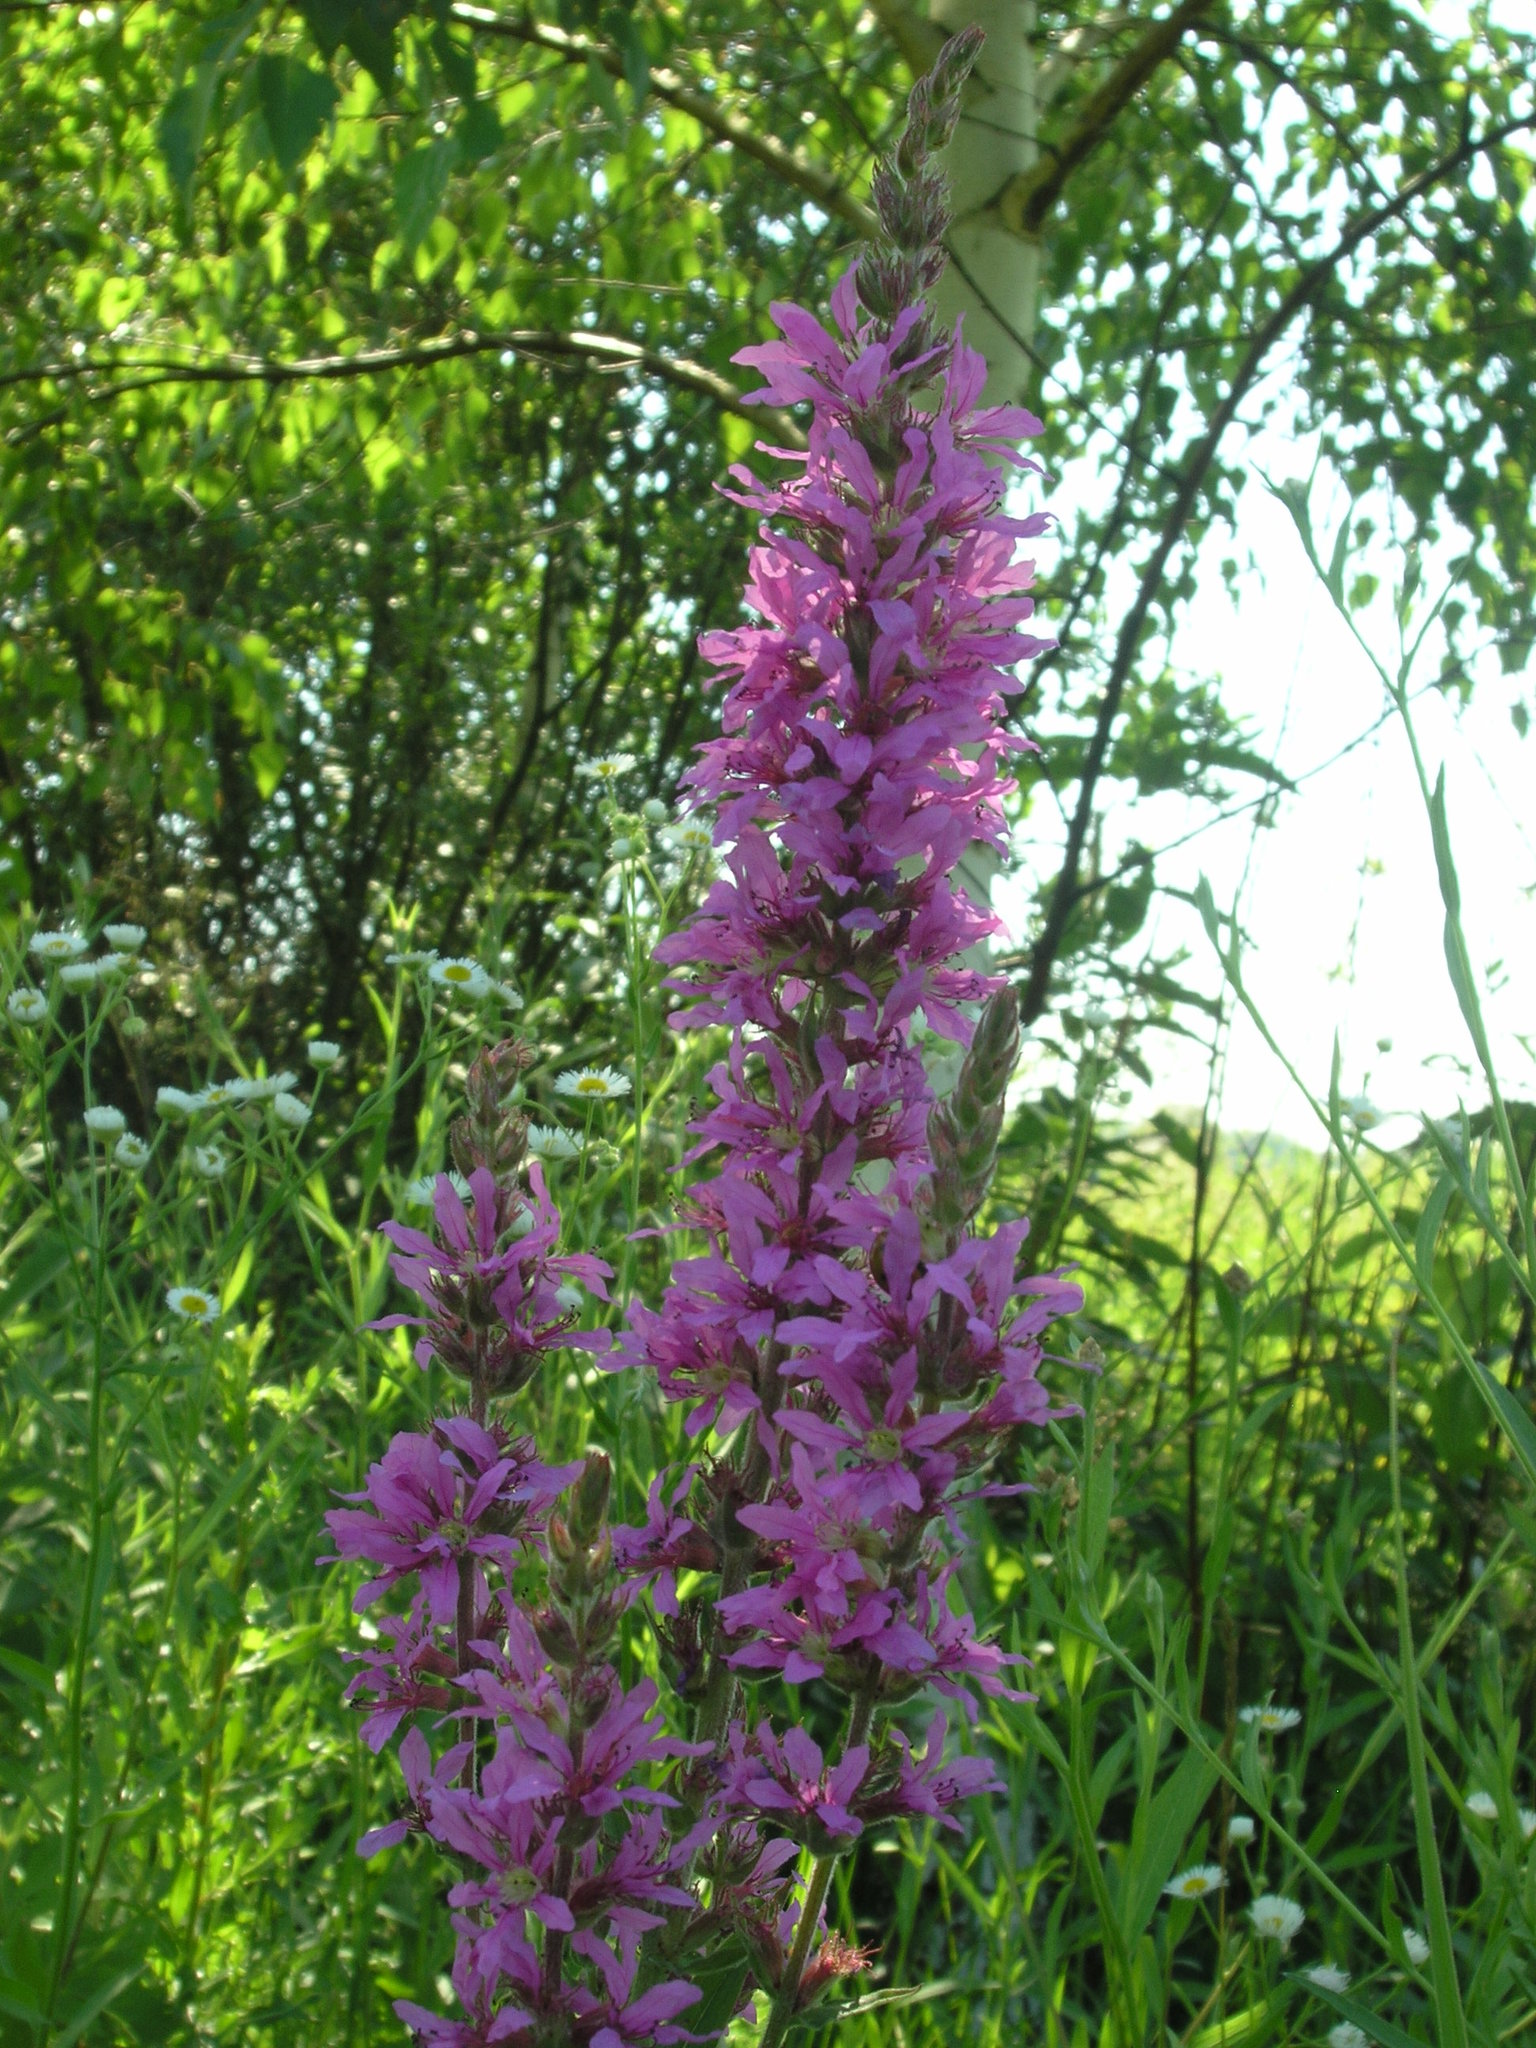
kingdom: Plantae
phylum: Tracheophyta
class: Magnoliopsida
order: Myrtales
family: Lythraceae
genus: Lythrum
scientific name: Lythrum salicaria
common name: Purple loosestrife
